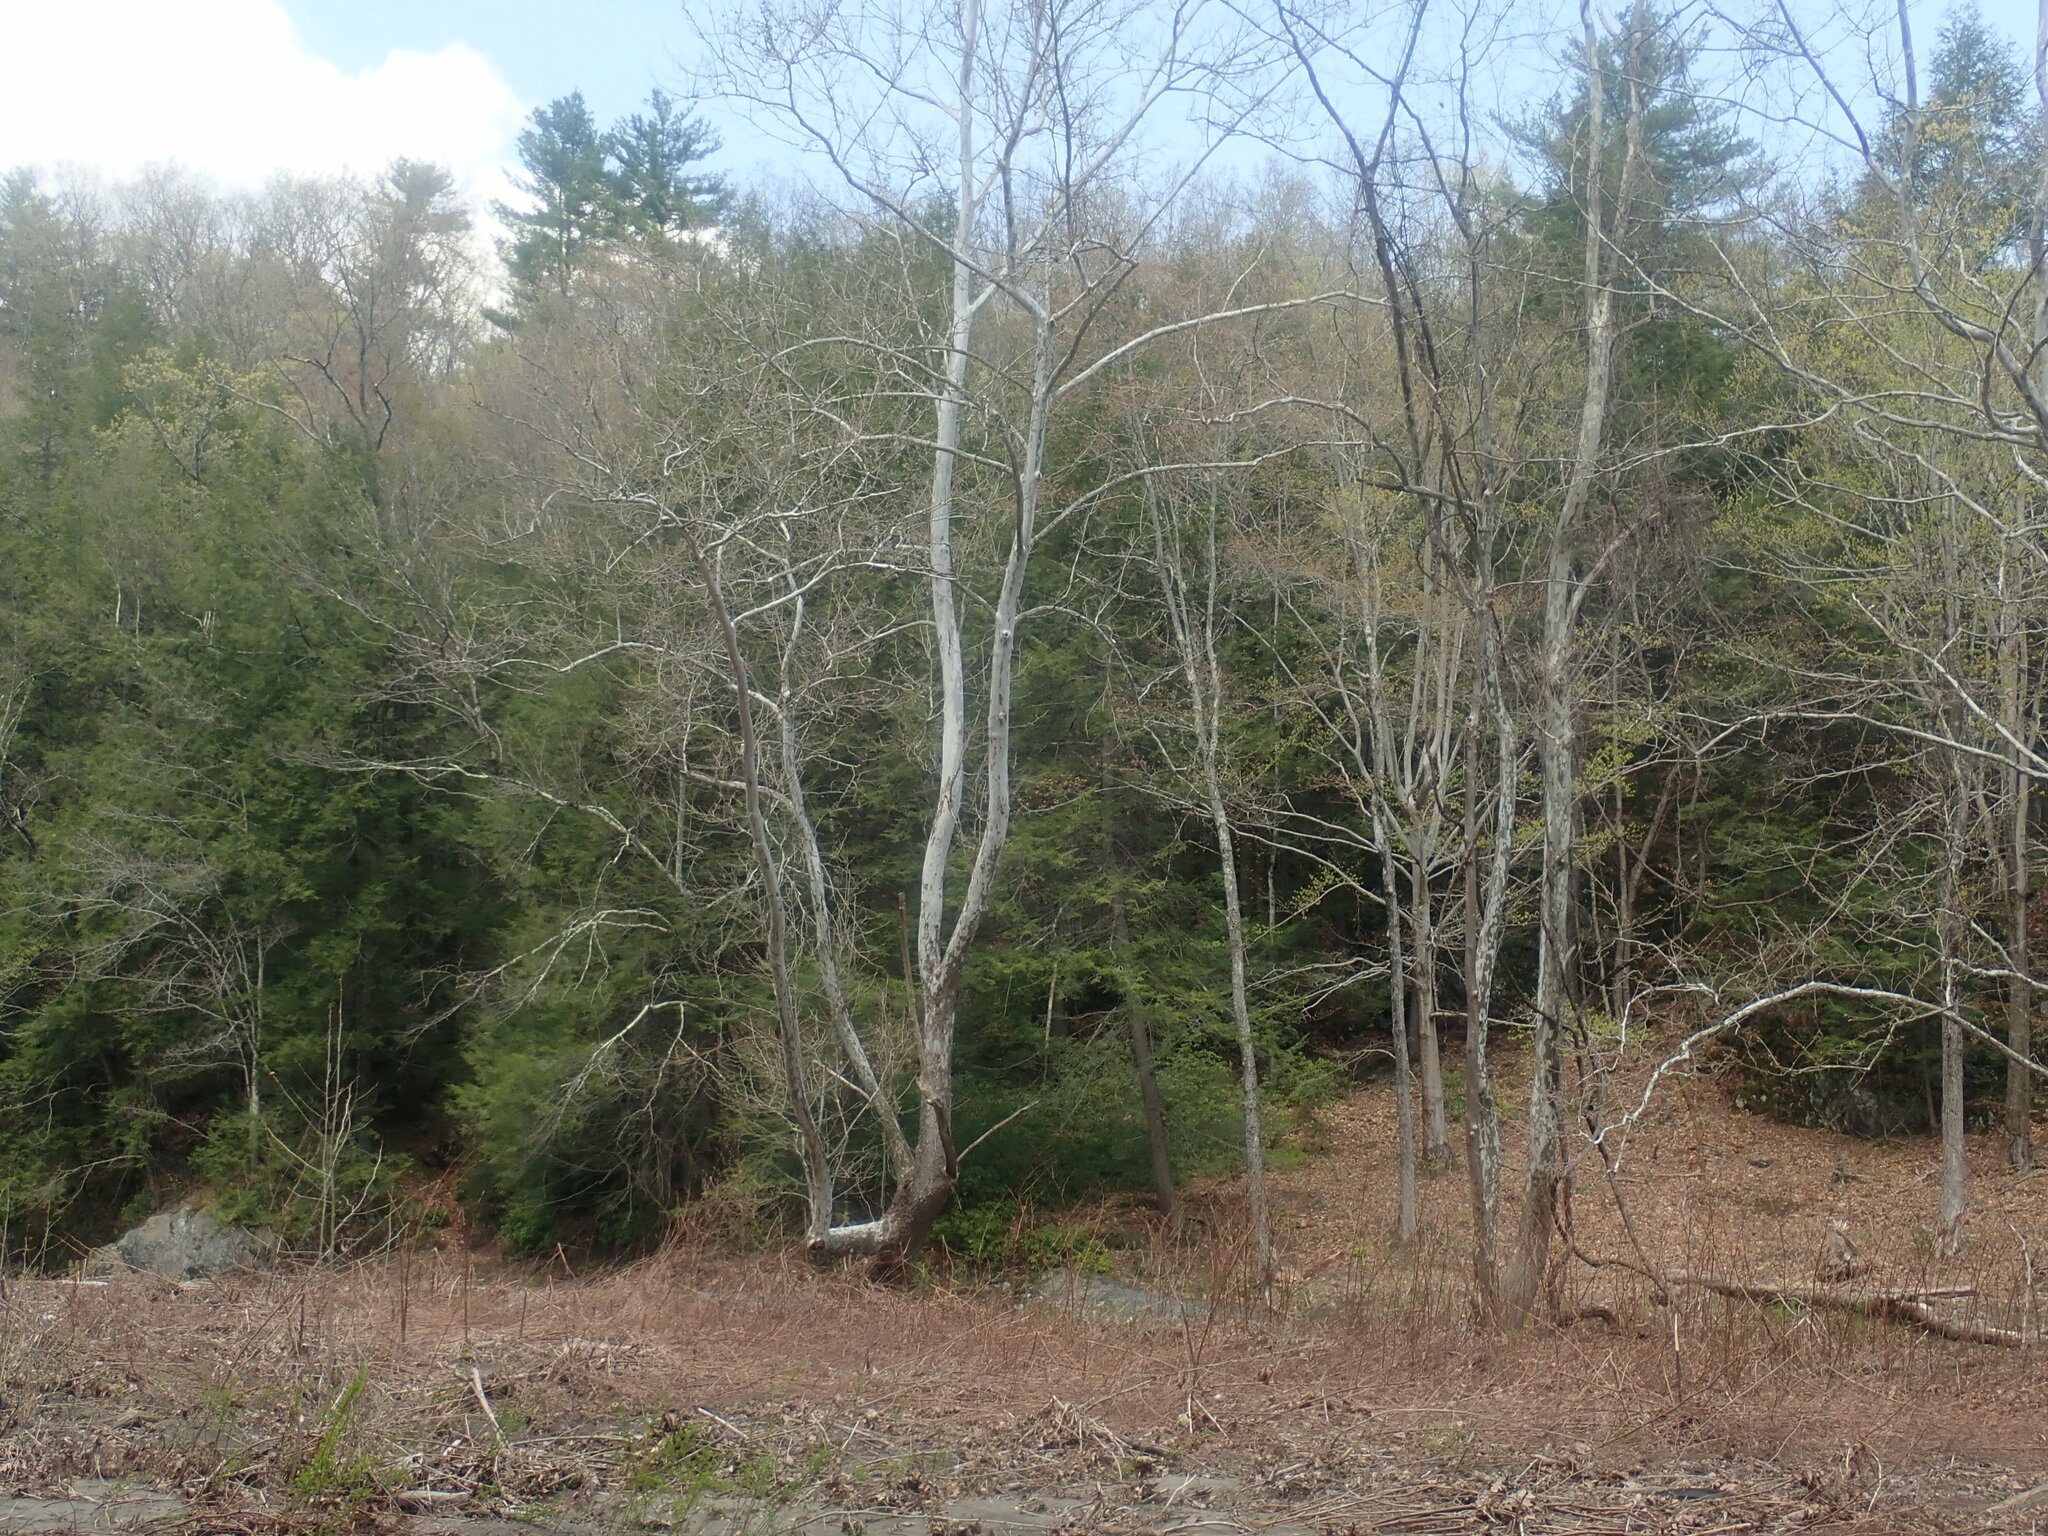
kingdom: Plantae
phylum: Tracheophyta
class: Magnoliopsida
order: Proteales
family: Platanaceae
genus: Platanus
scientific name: Platanus occidentalis
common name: American sycamore
